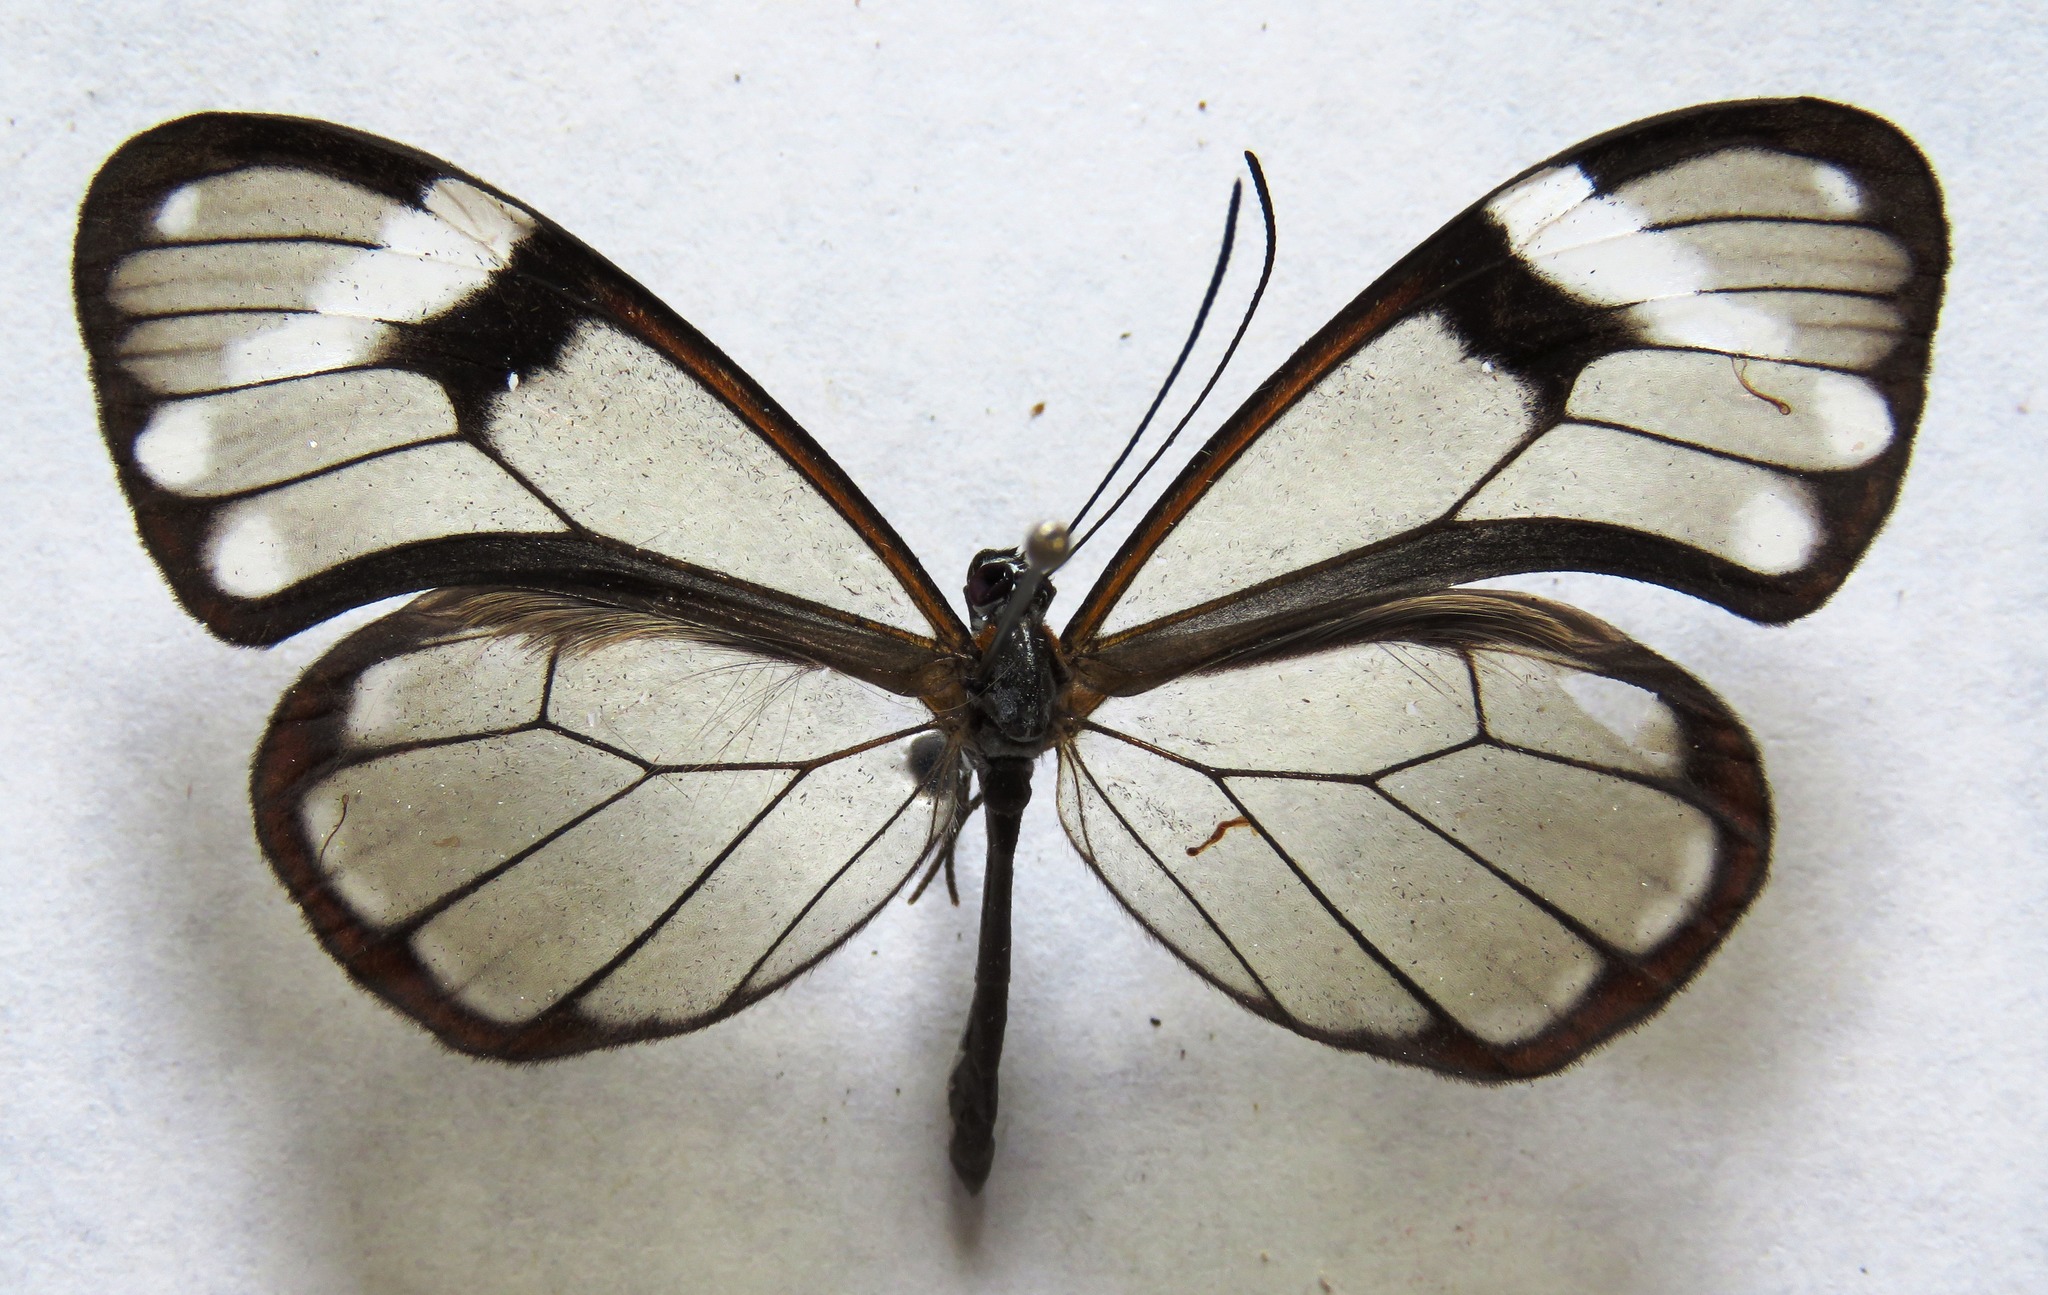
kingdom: Animalia
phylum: Arthropoda
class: Insecta
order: Lepidoptera
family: Nymphalidae
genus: Godyris
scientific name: Godyris nero
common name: Nero clearwing
